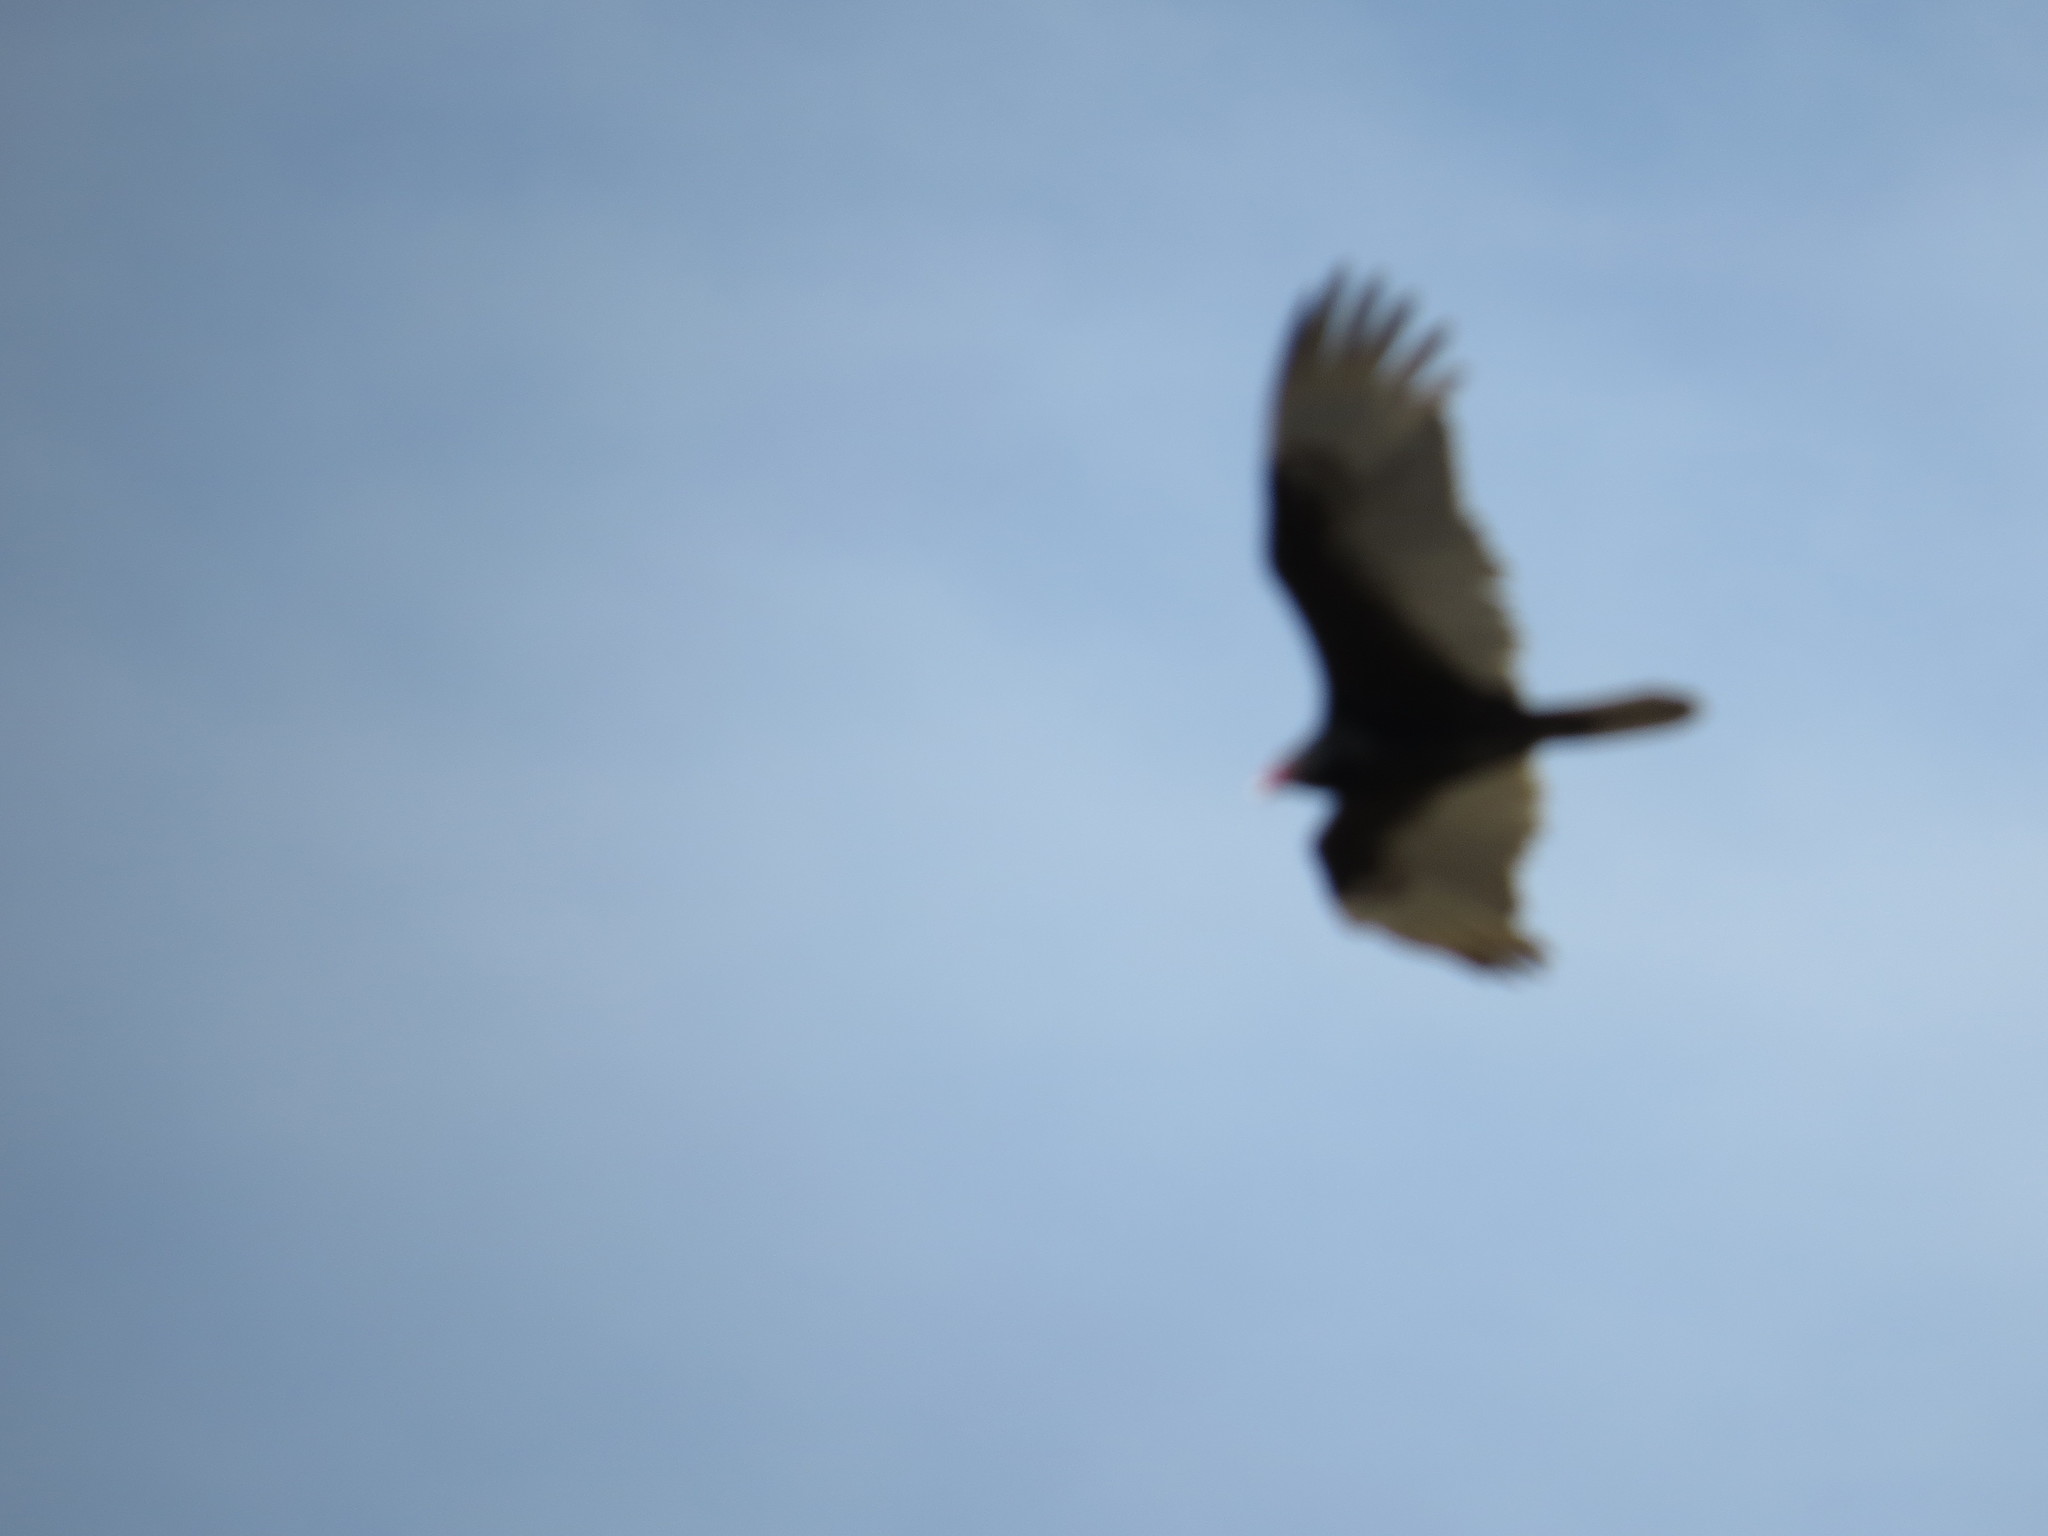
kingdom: Animalia
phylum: Chordata
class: Aves
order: Accipitriformes
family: Cathartidae
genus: Cathartes
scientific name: Cathartes aura
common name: Turkey vulture
